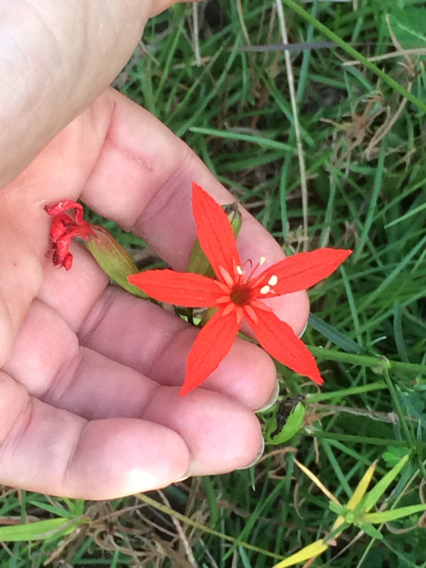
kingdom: Plantae
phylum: Tracheophyta
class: Magnoliopsida
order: Caryophyllales
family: Caryophyllaceae
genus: Silene
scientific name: Silene subciliata
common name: Prairie fire-pink
